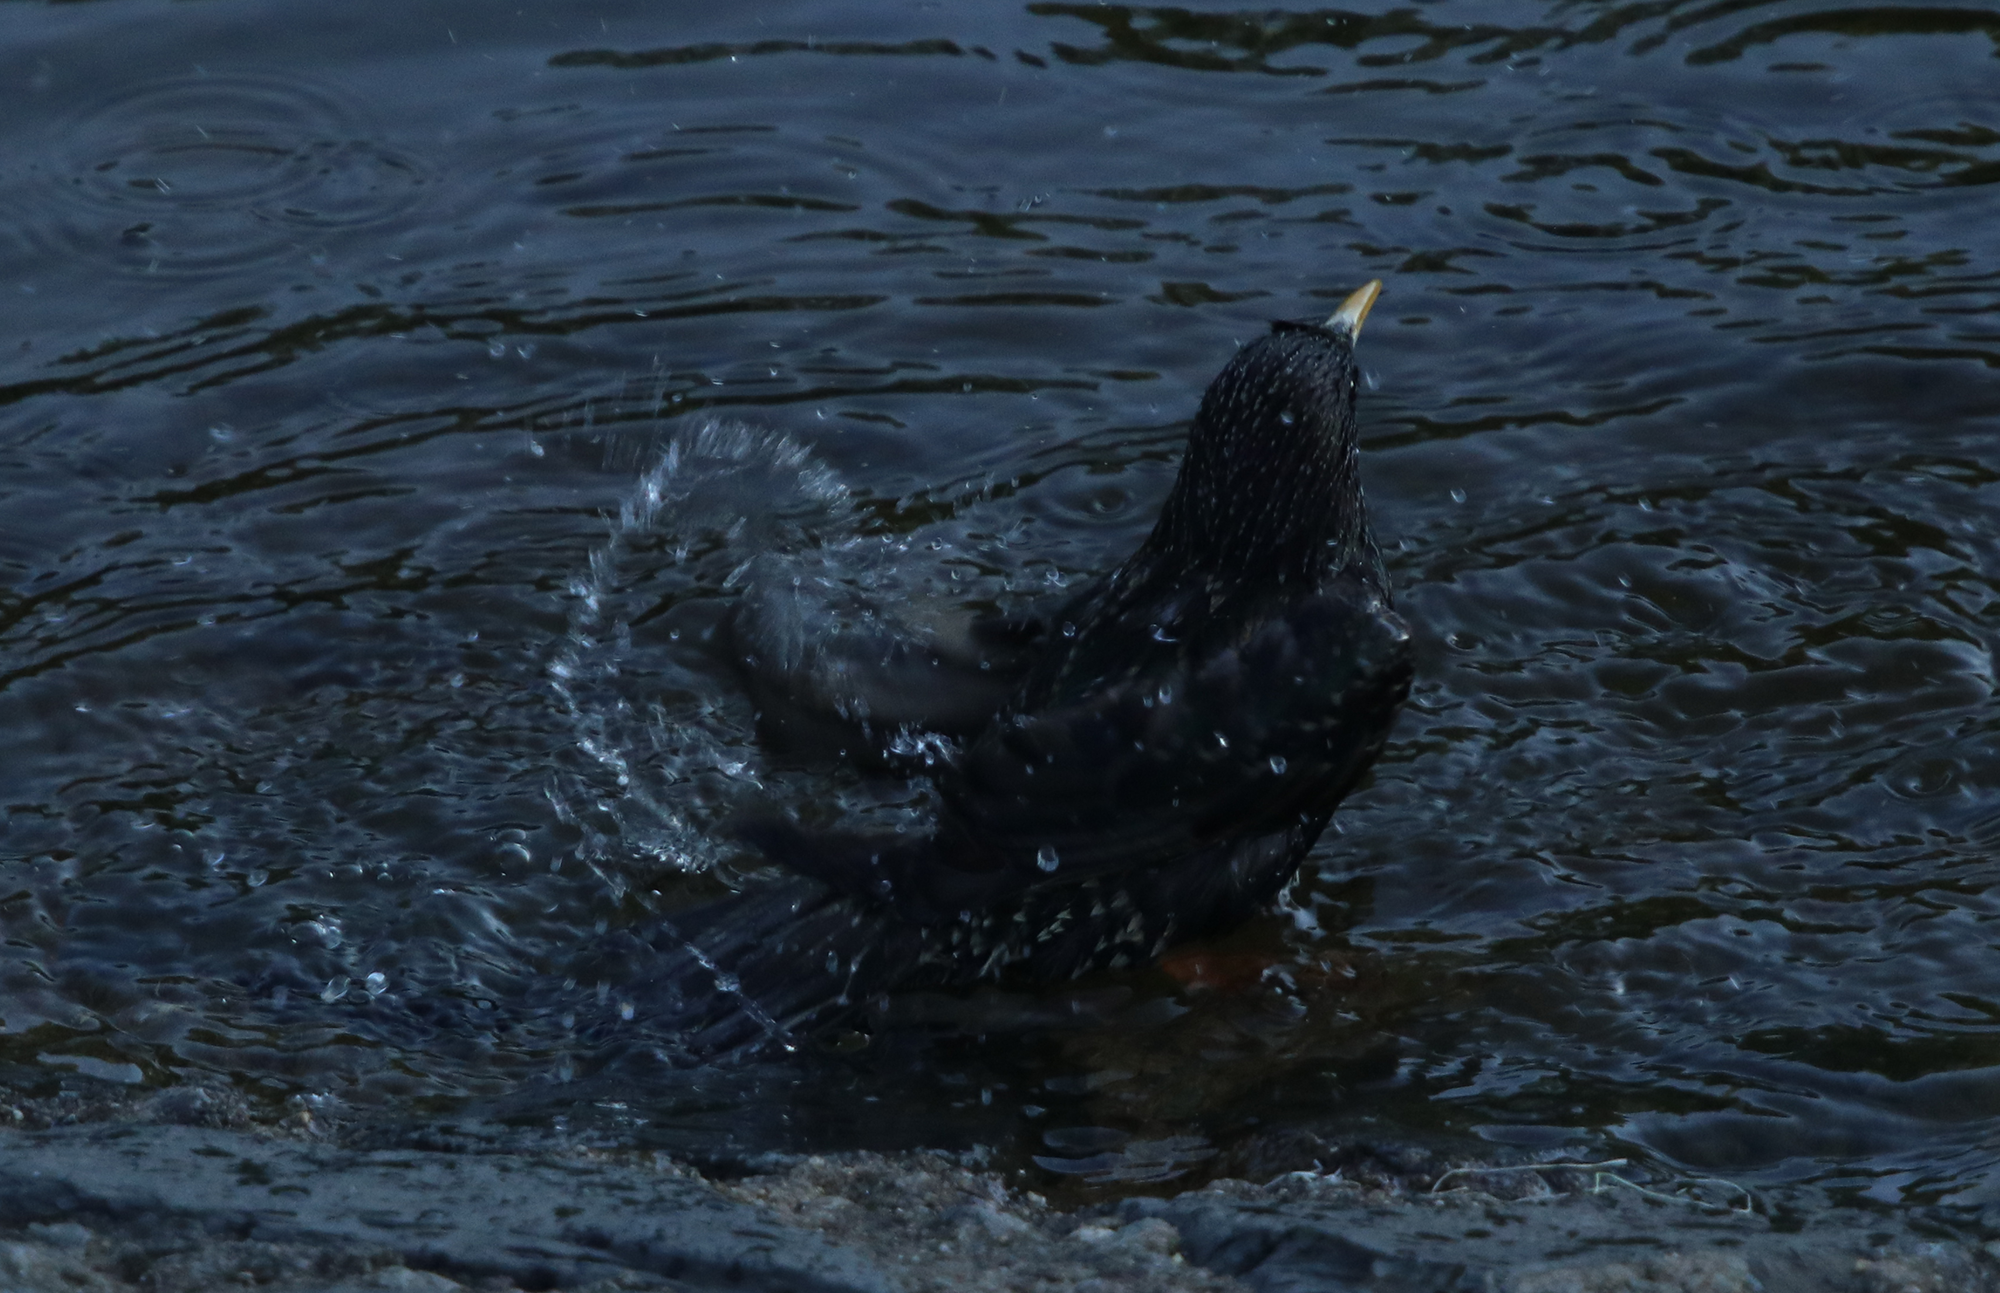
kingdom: Animalia
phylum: Chordata
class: Aves
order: Passeriformes
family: Sturnidae
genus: Sturnus
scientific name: Sturnus vulgaris
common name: Common starling
